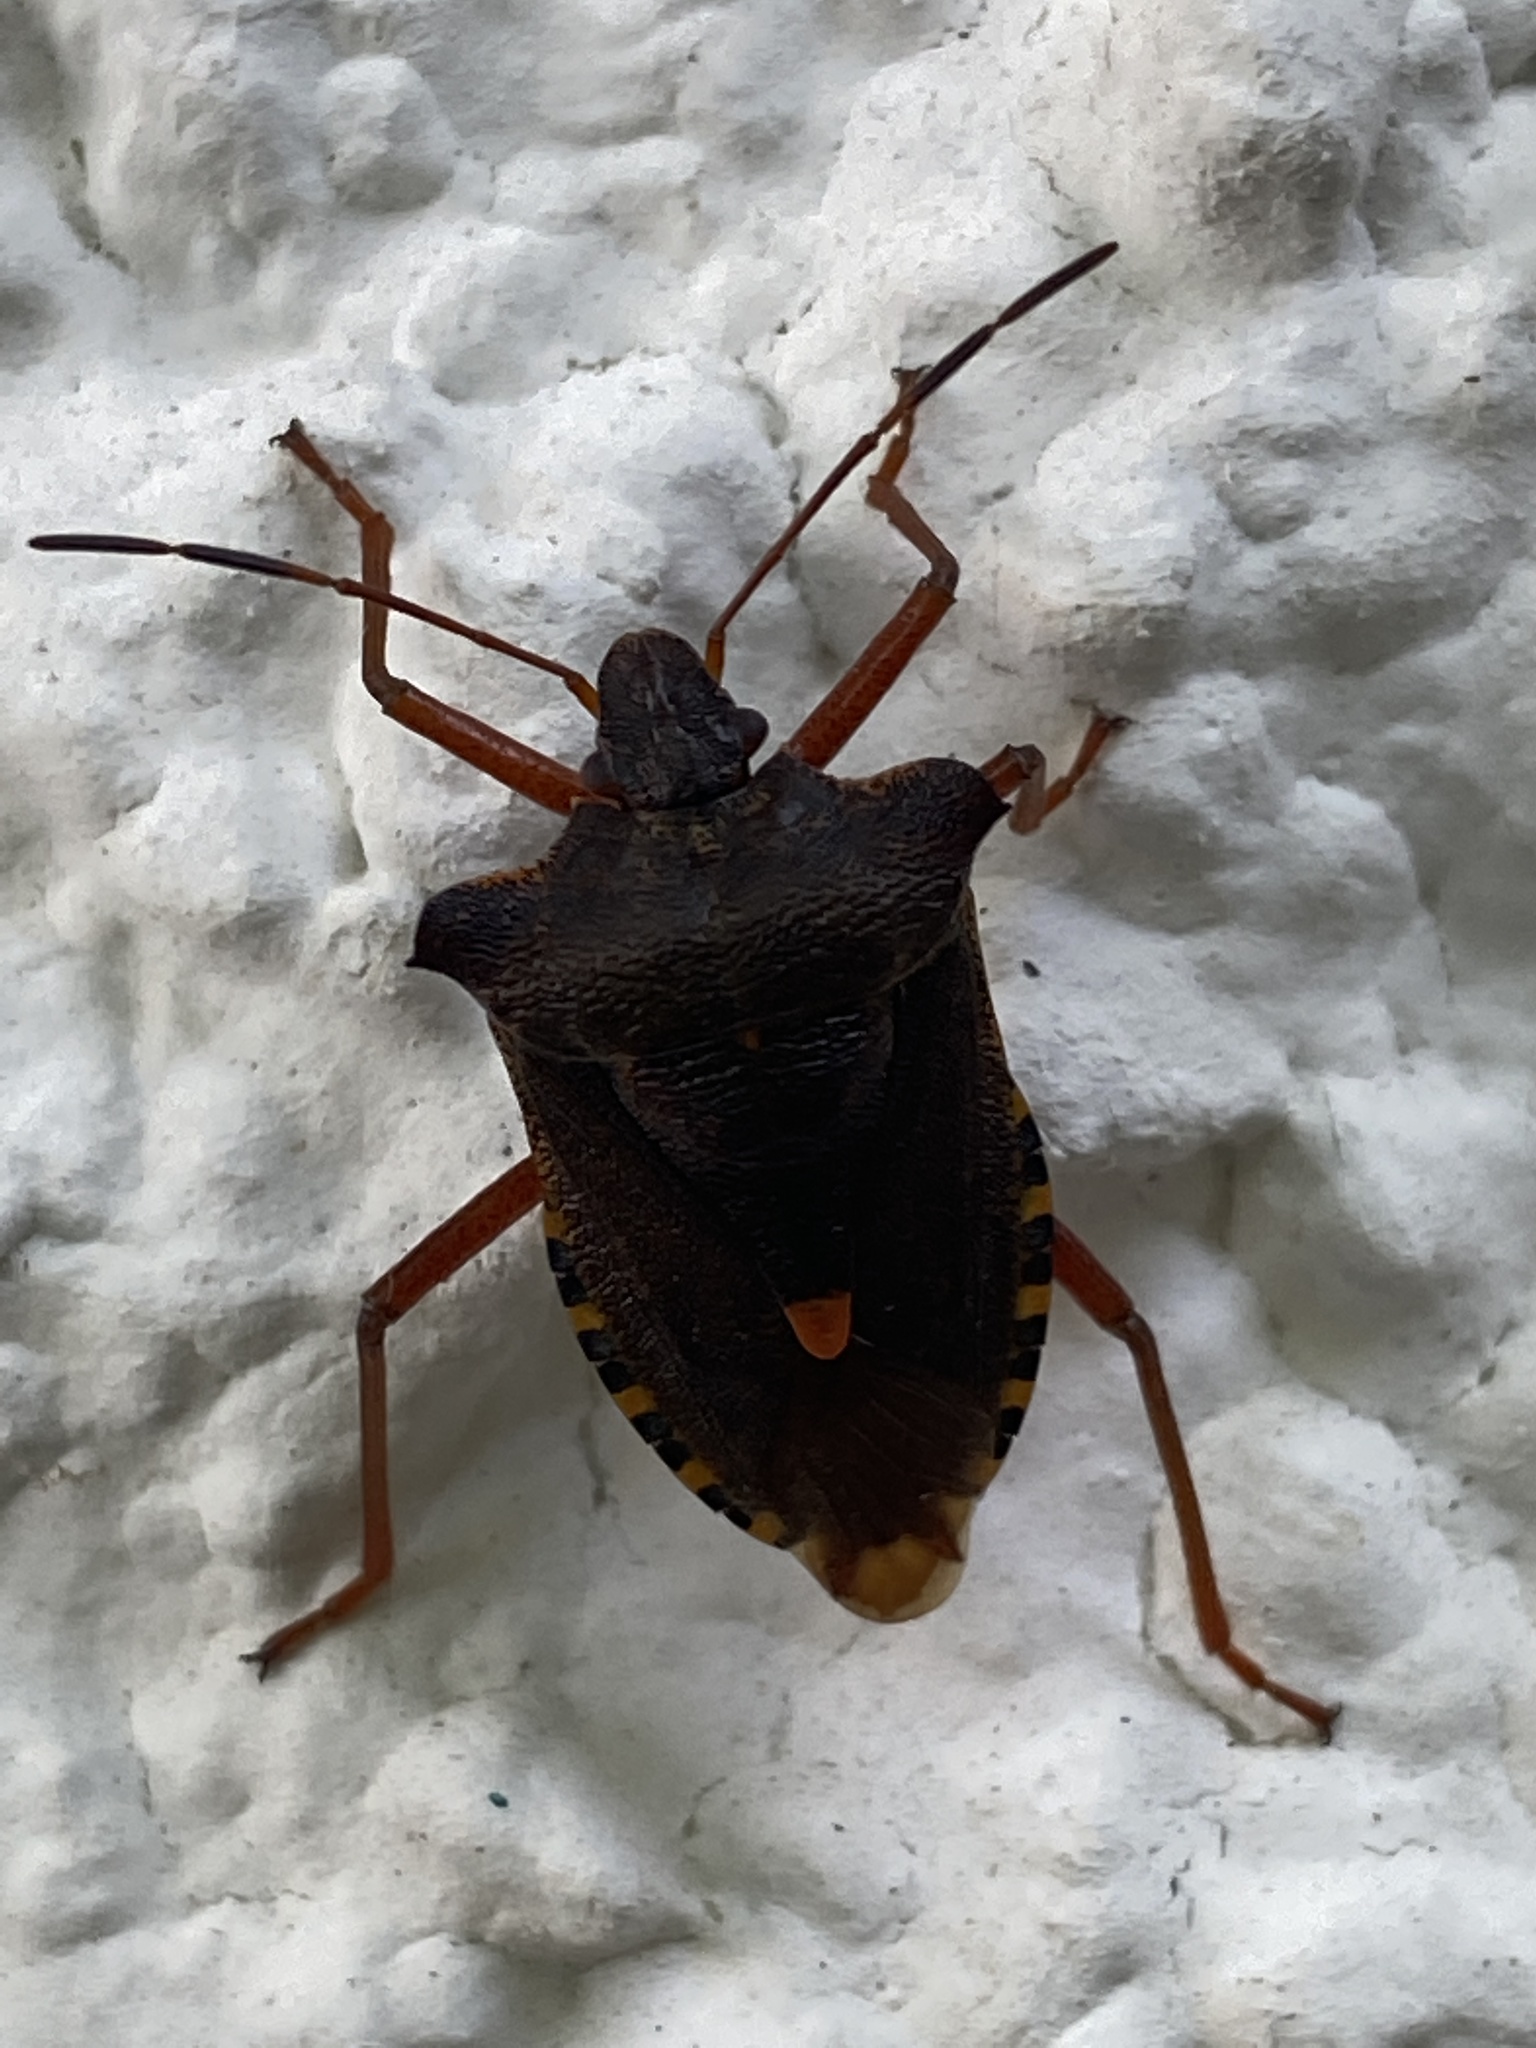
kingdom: Animalia
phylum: Arthropoda
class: Insecta
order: Hemiptera
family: Pentatomidae
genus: Pentatoma
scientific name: Pentatoma rufipes
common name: Forest bug
